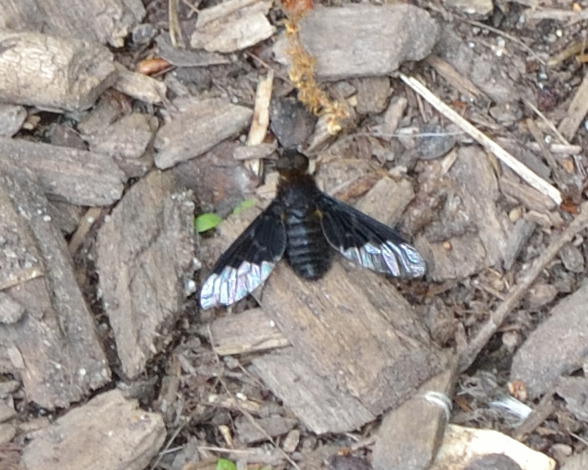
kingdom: Animalia
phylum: Arthropoda
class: Insecta
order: Diptera
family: Bombyliidae
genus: Hemipenthes
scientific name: Hemipenthes morio
